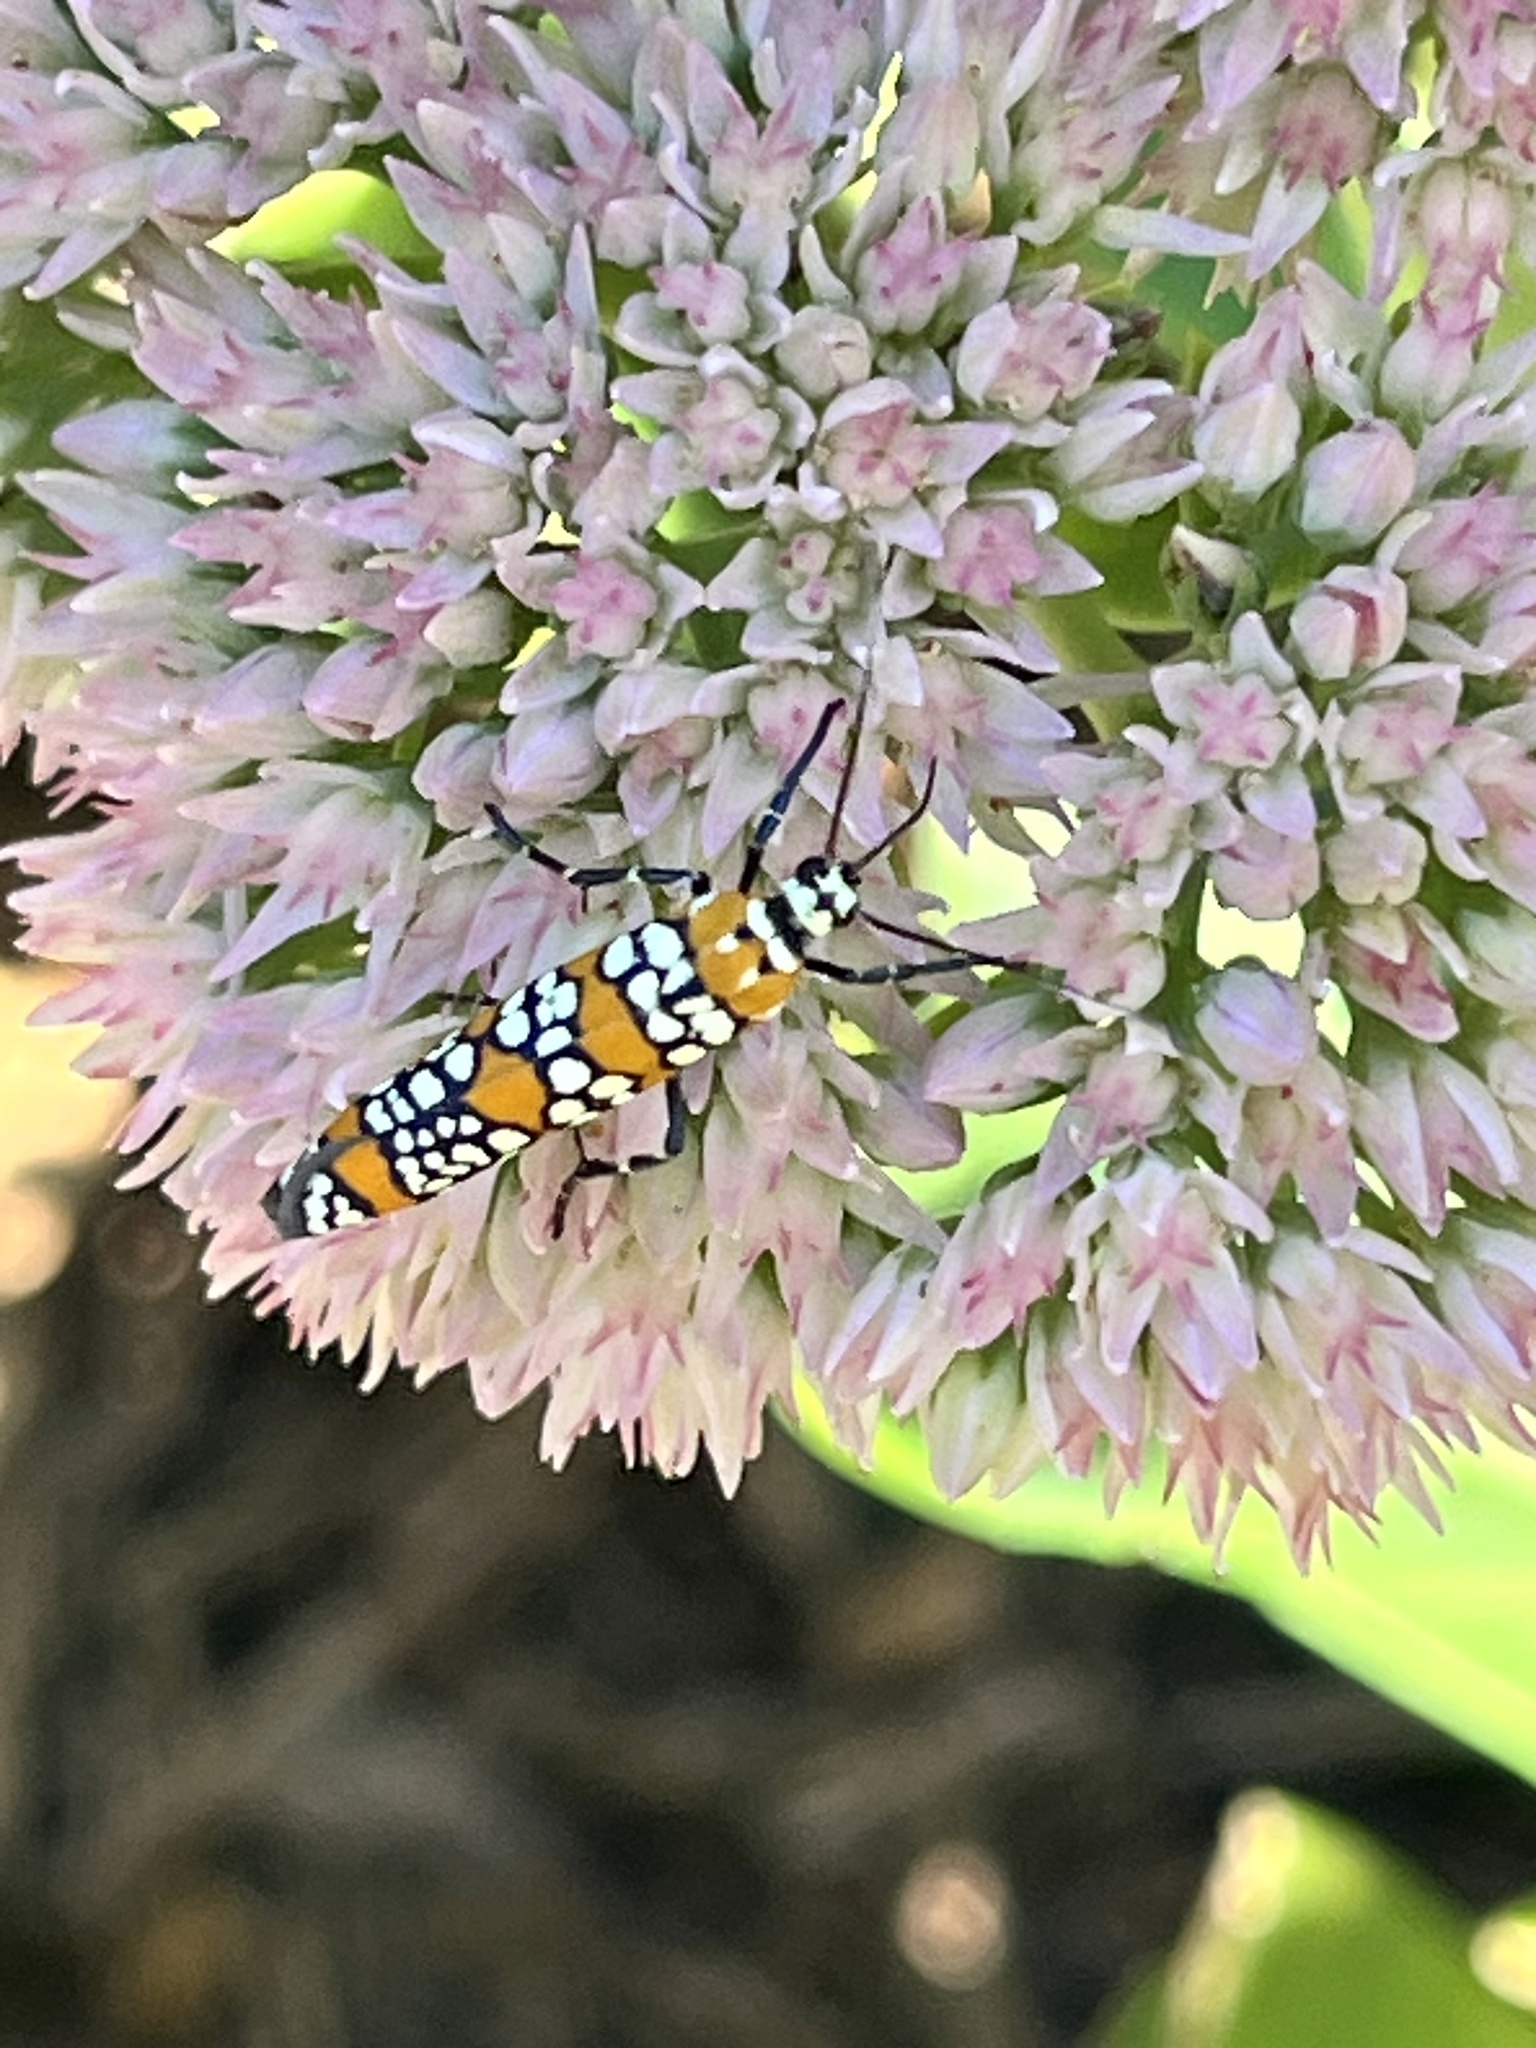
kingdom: Animalia
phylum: Arthropoda
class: Insecta
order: Lepidoptera
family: Attevidae
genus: Atteva
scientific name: Atteva punctella
